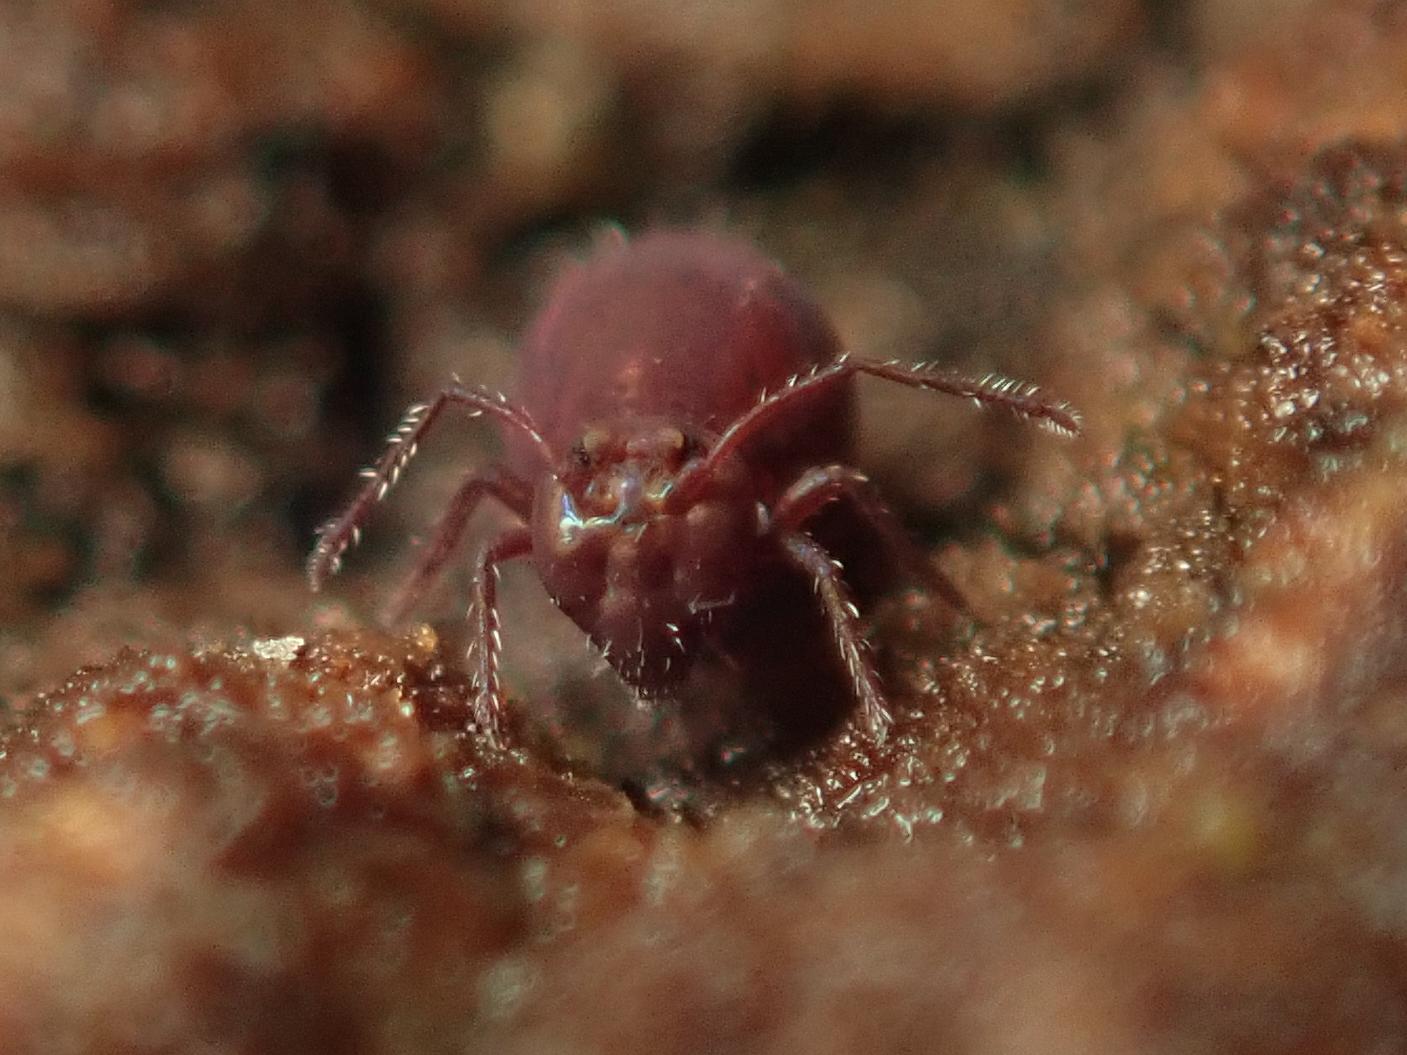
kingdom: Animalia
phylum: Arthropoda
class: Collembola
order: Symphypleona
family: Dicyrtomidae
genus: Dicyrtoma
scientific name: Dicyrtoma fusca
